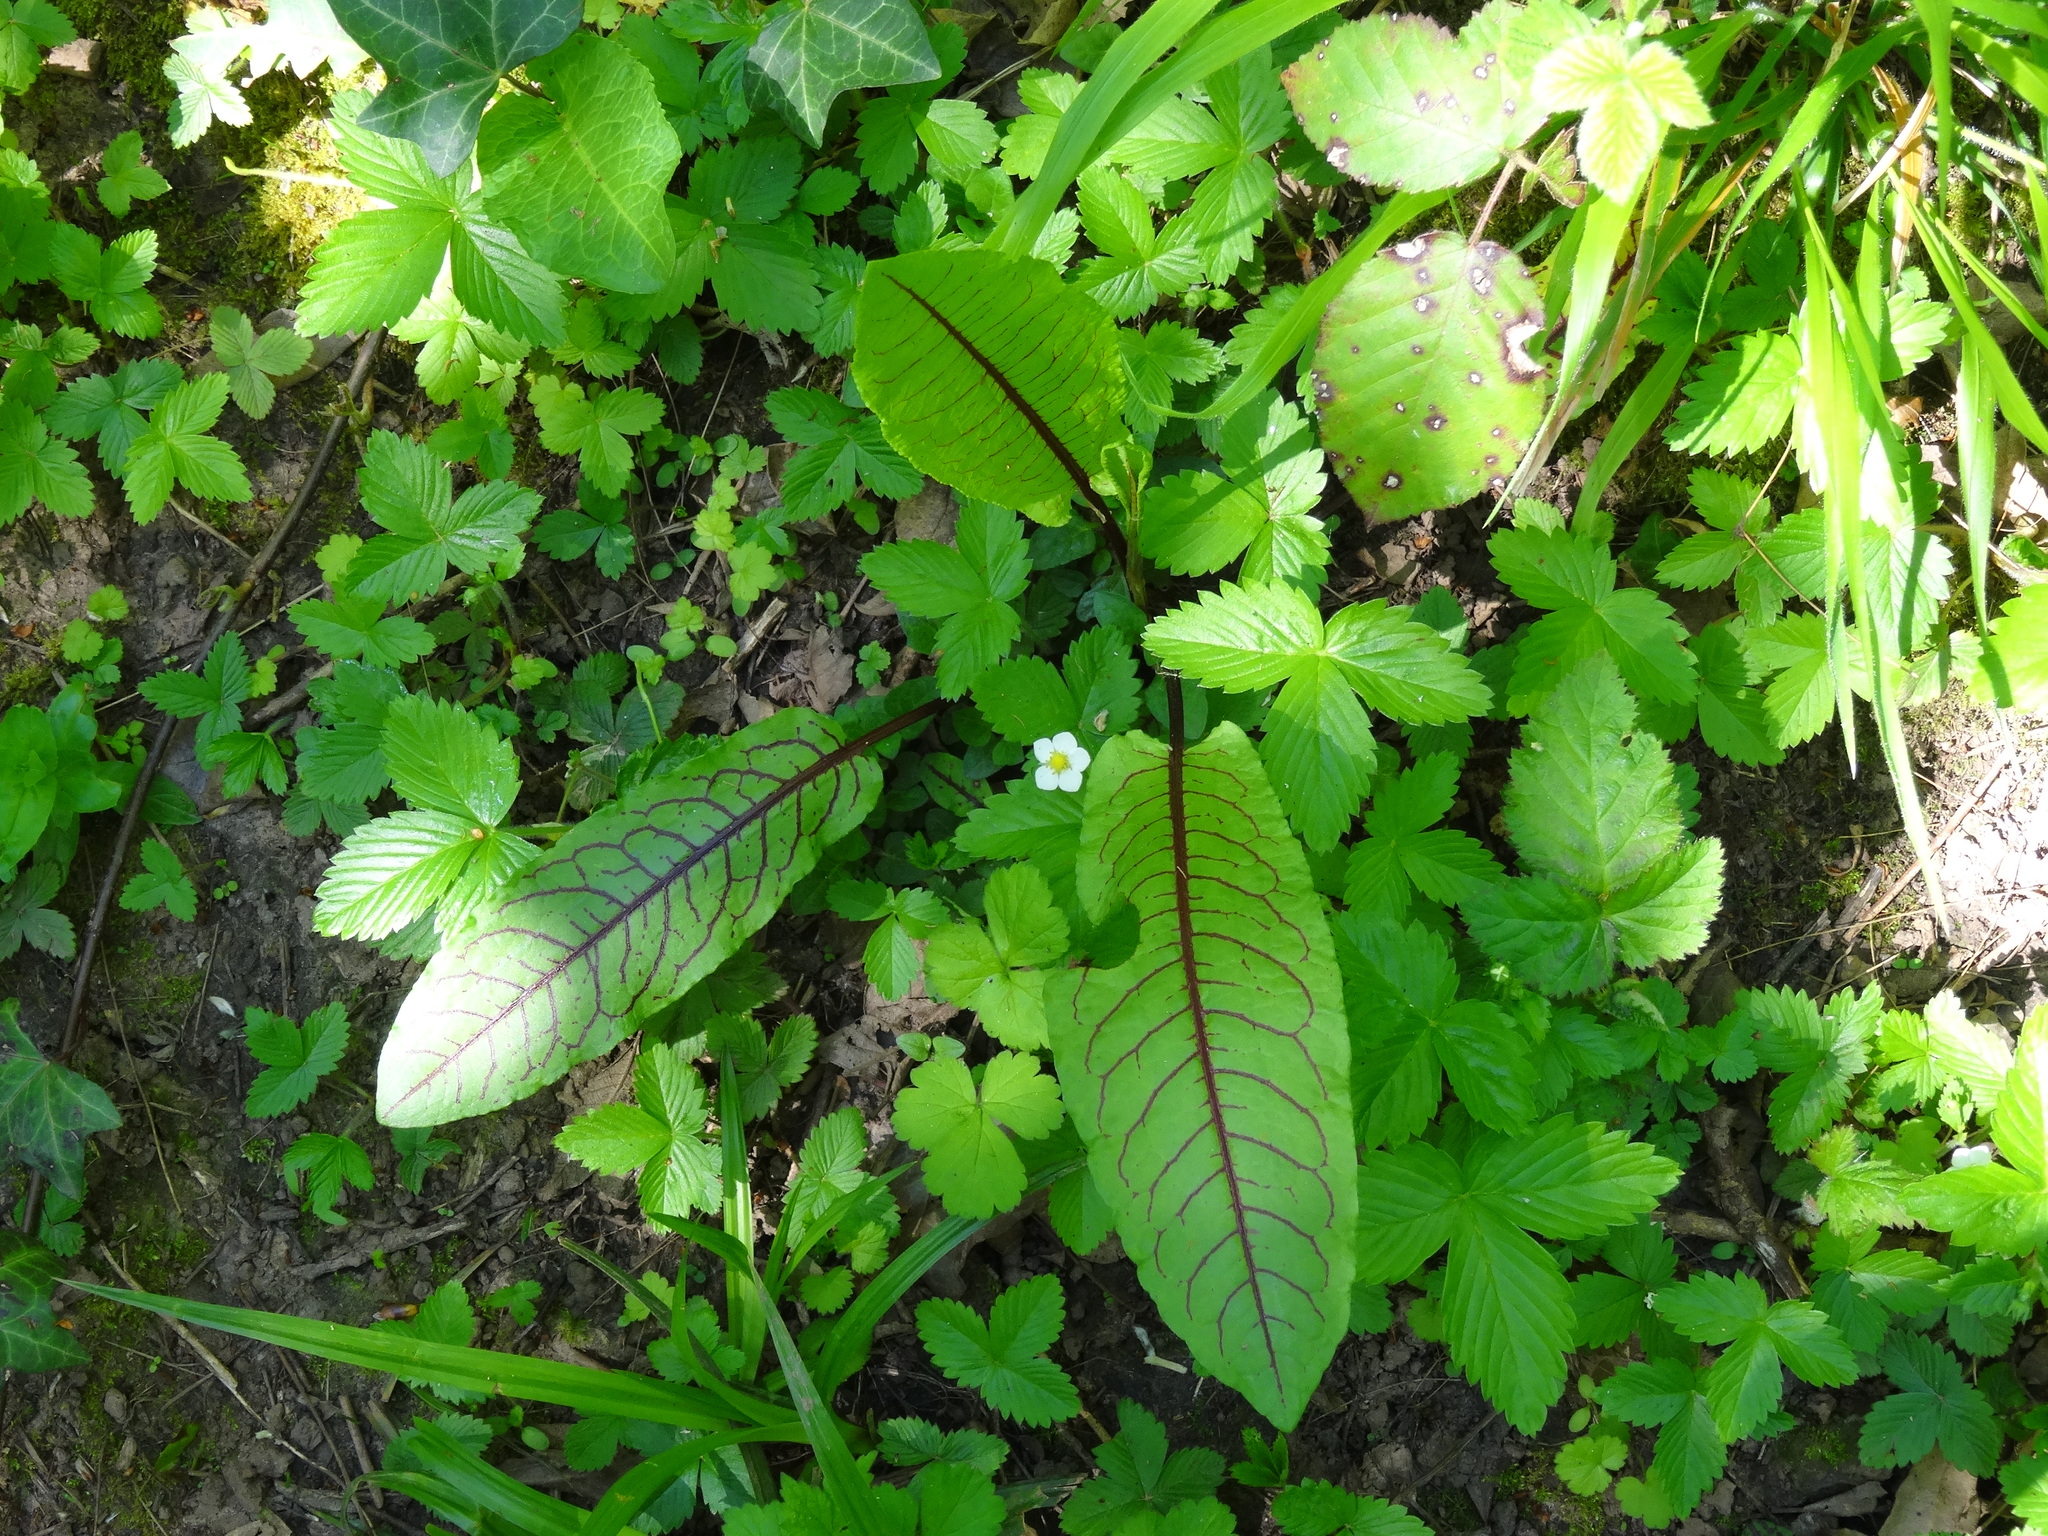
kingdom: Plantae
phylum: Tracheophyta
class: Magnoliopsida
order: Caryophyllales
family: Polygonaceae
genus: Rumex
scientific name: Rumex sanguineus
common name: Wood dock
